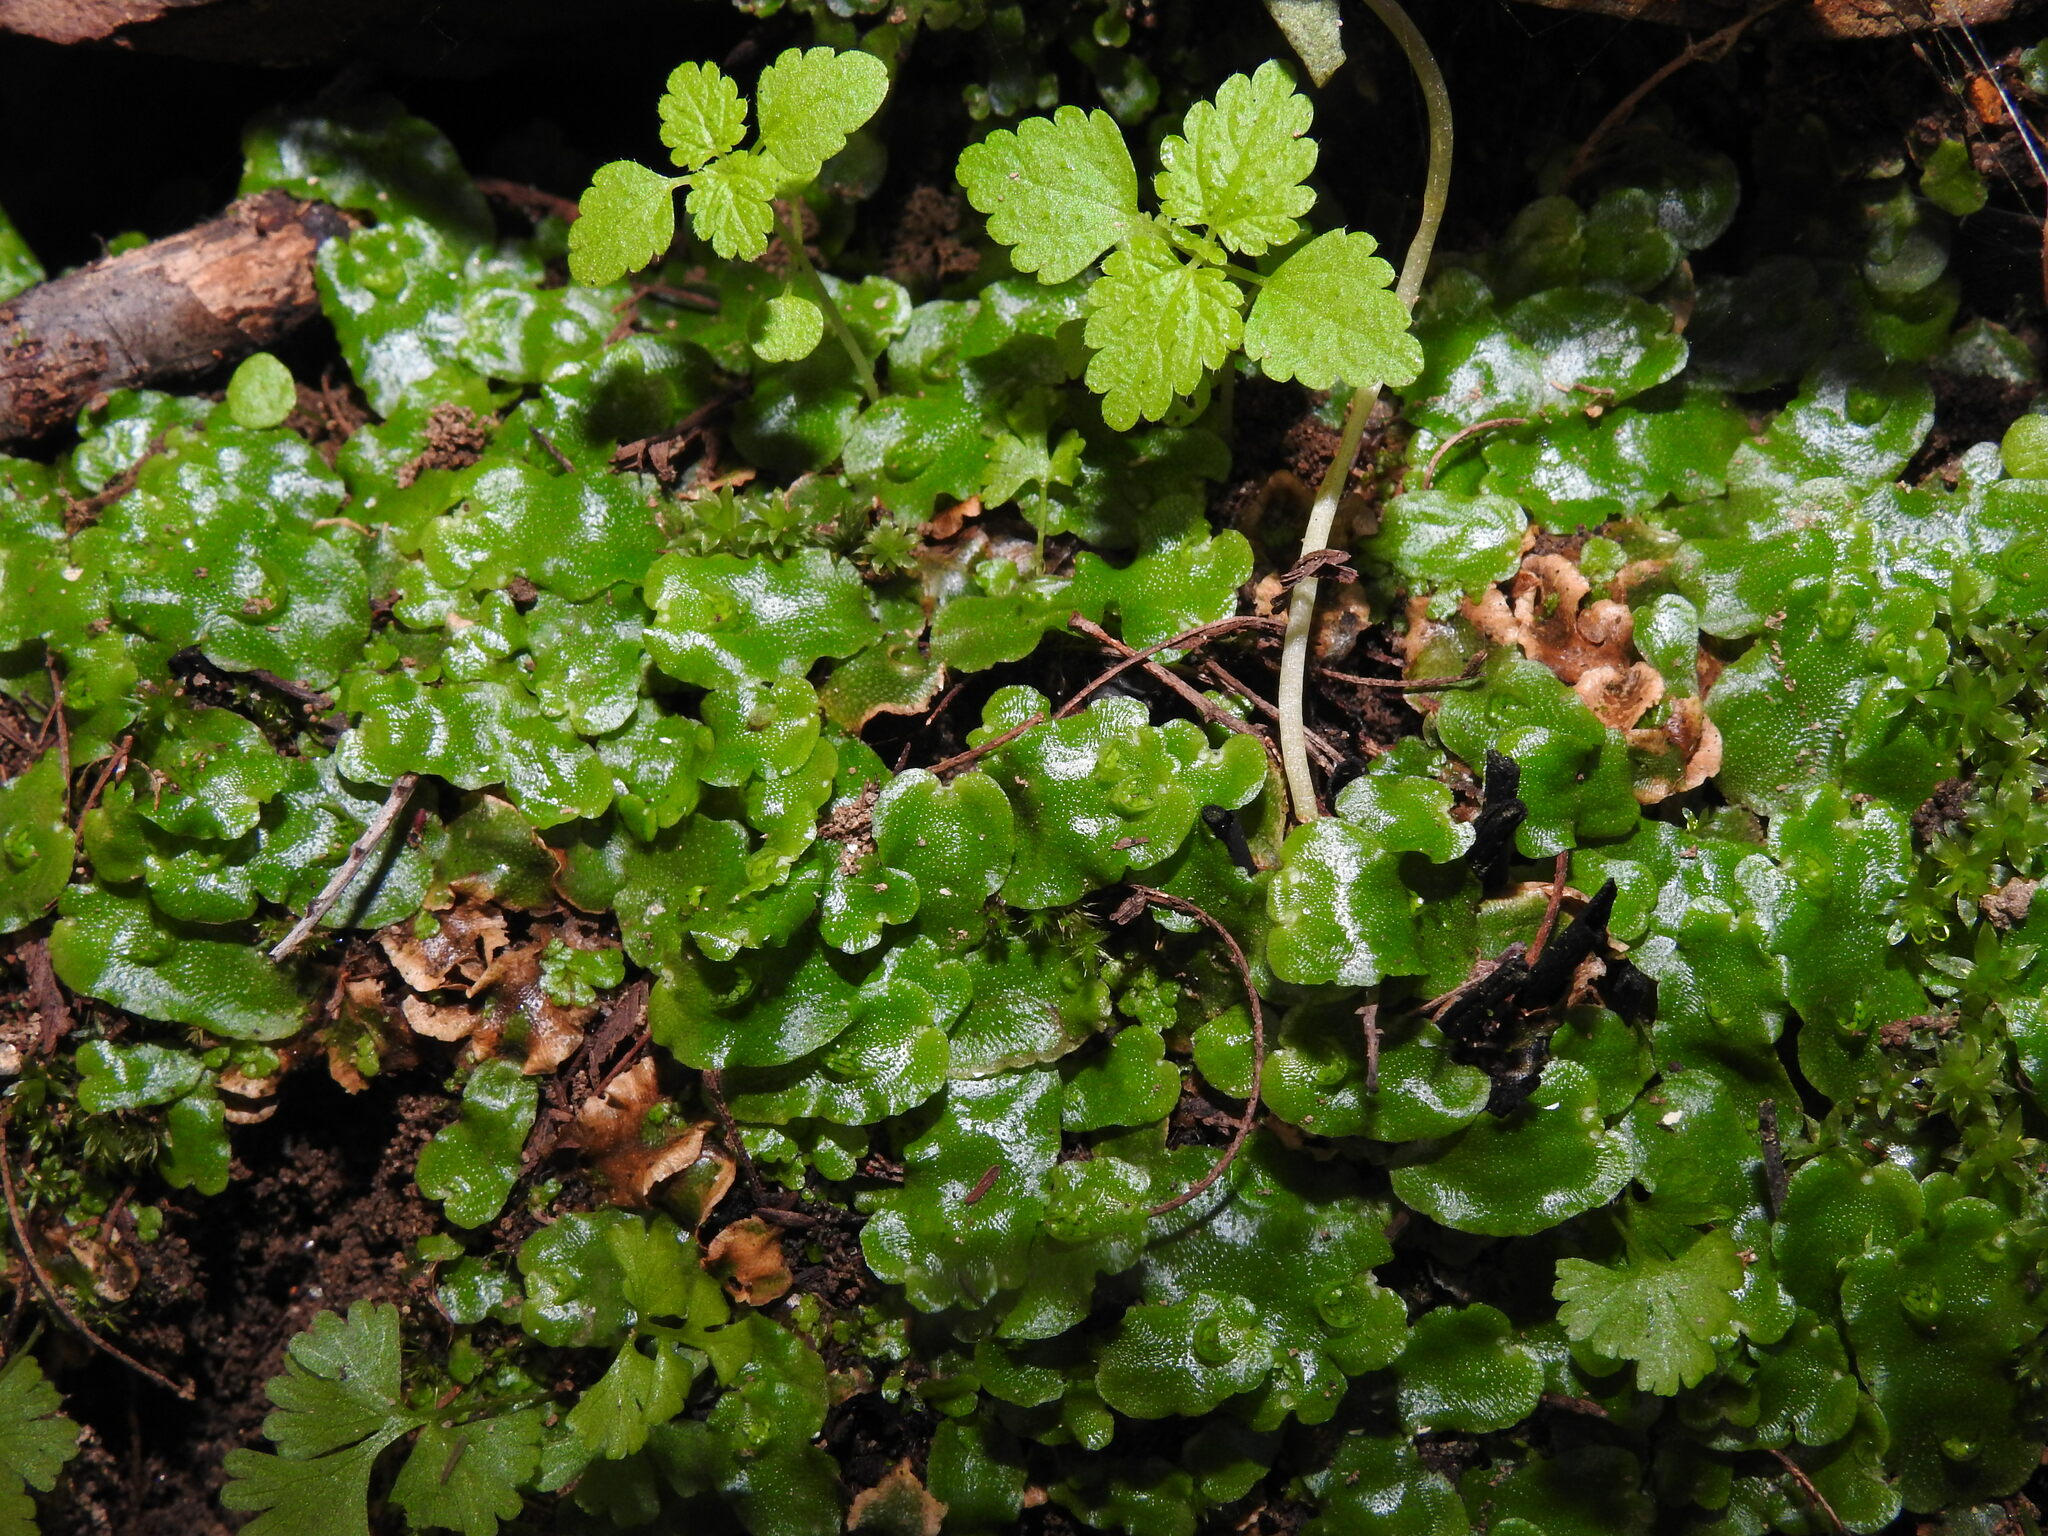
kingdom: Plantae
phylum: Marchantiophyta
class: Marchantiopsida
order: Lunulariales
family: Lunulariaceae
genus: Lunularia
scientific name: Lunularia cruciata
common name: Crescent-cup liverwort
